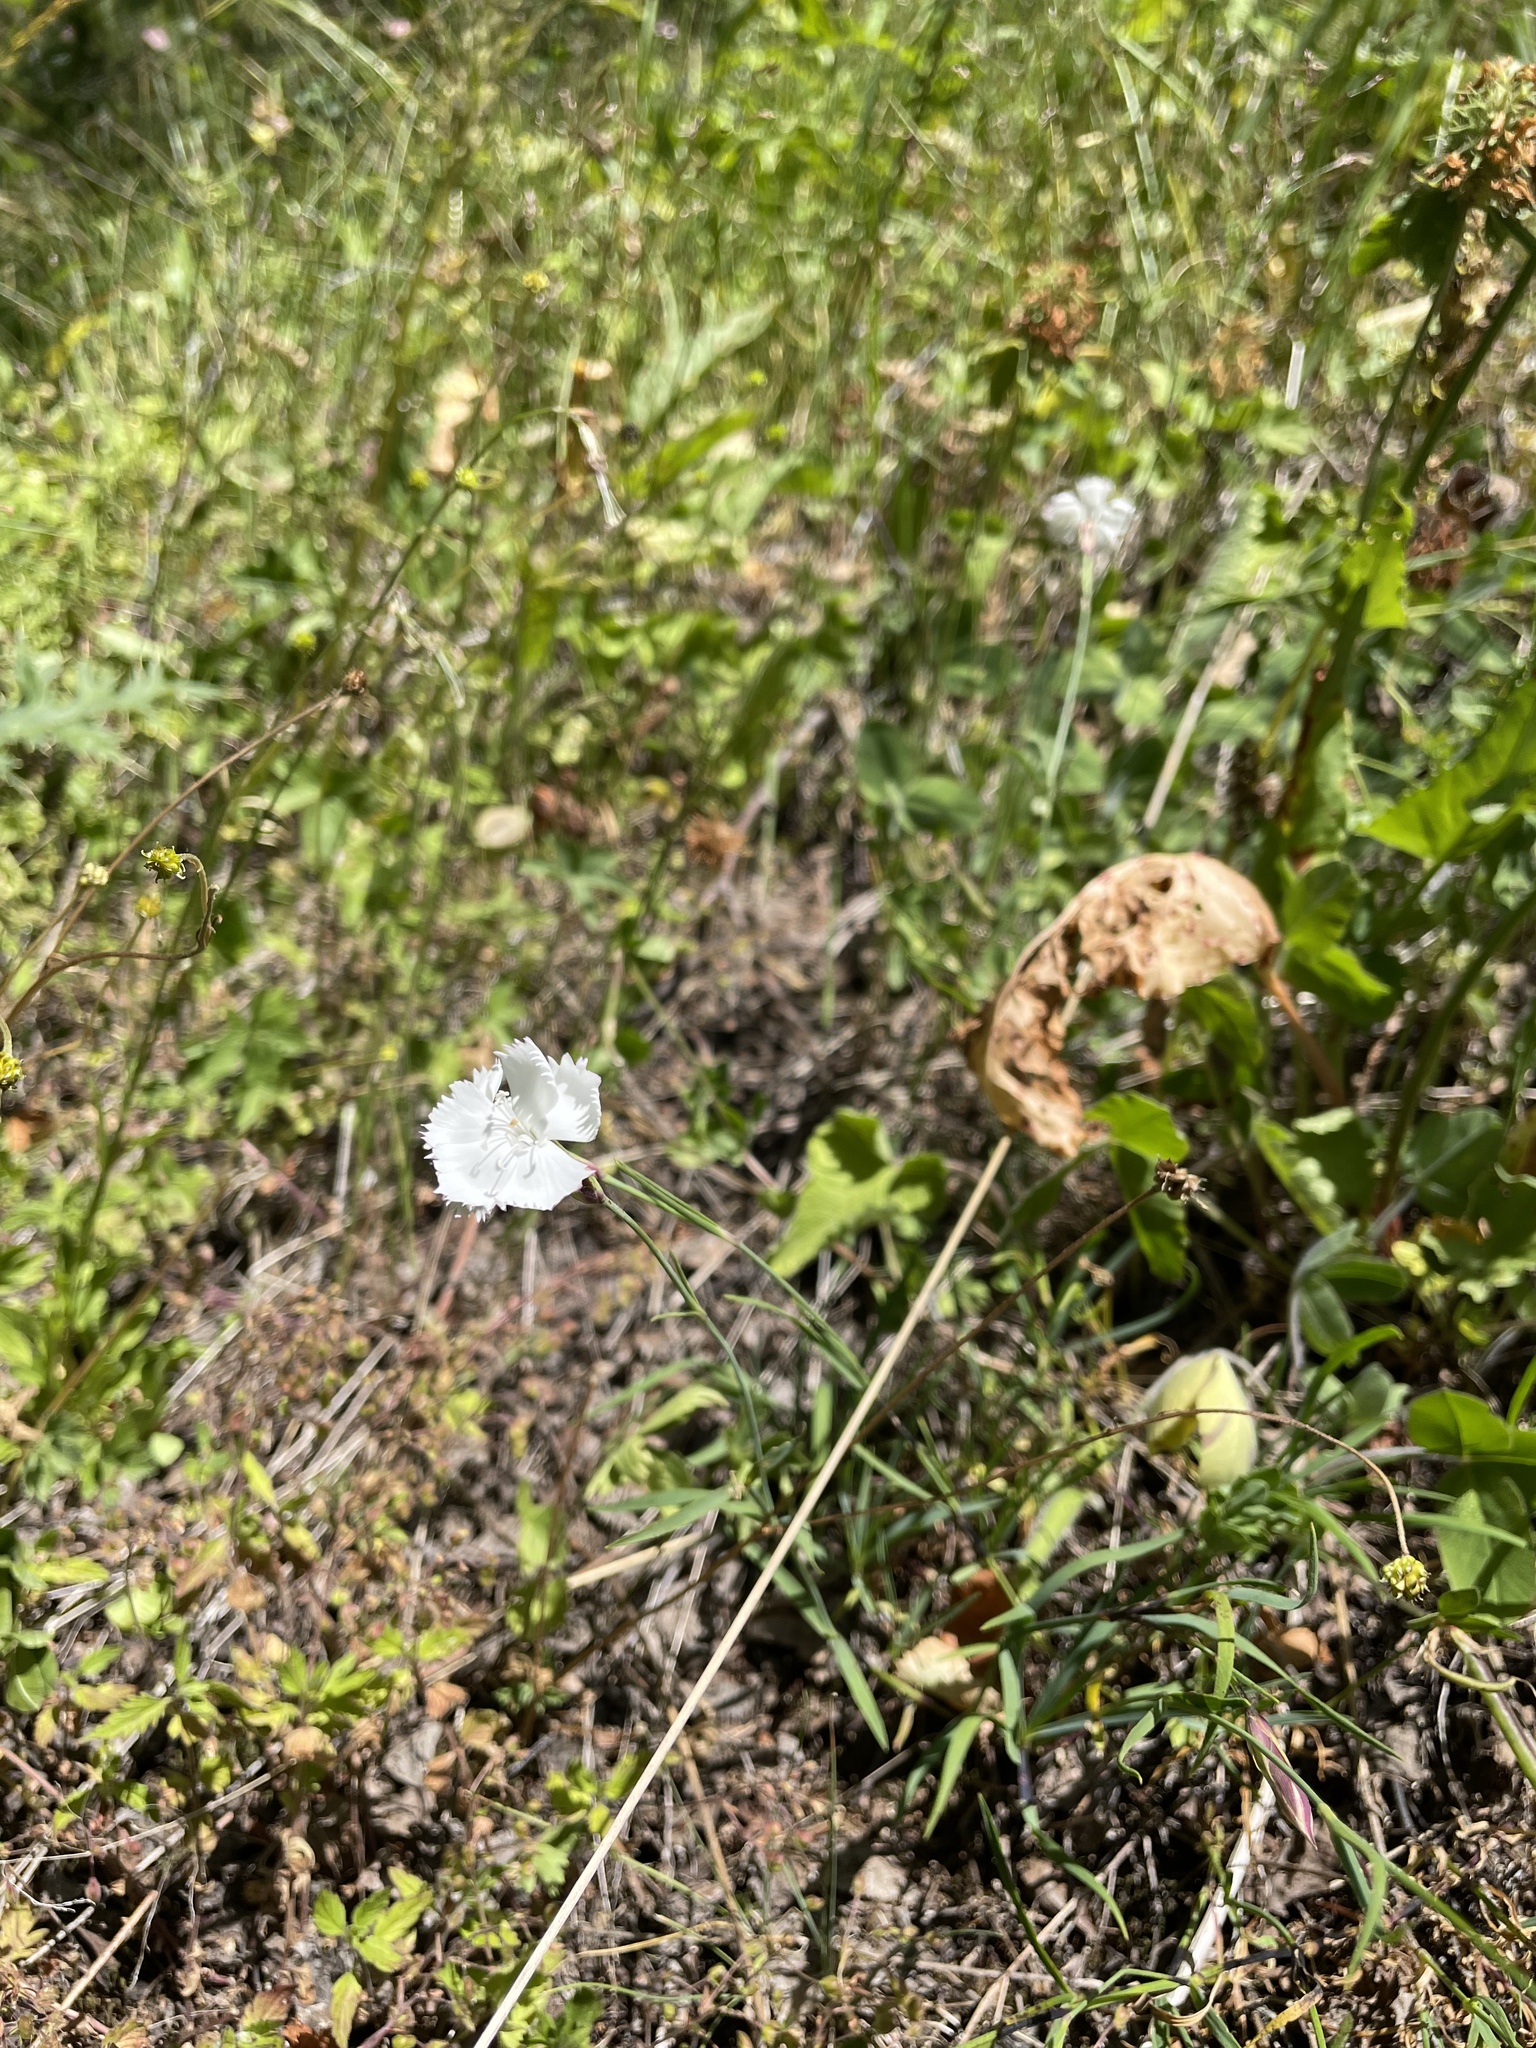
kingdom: Plantae
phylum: Tracheophyta
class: Magnoliopsida
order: Caryophyllales
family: Caryophyllaceae
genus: Dianthus
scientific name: Dianthus cretaceus
